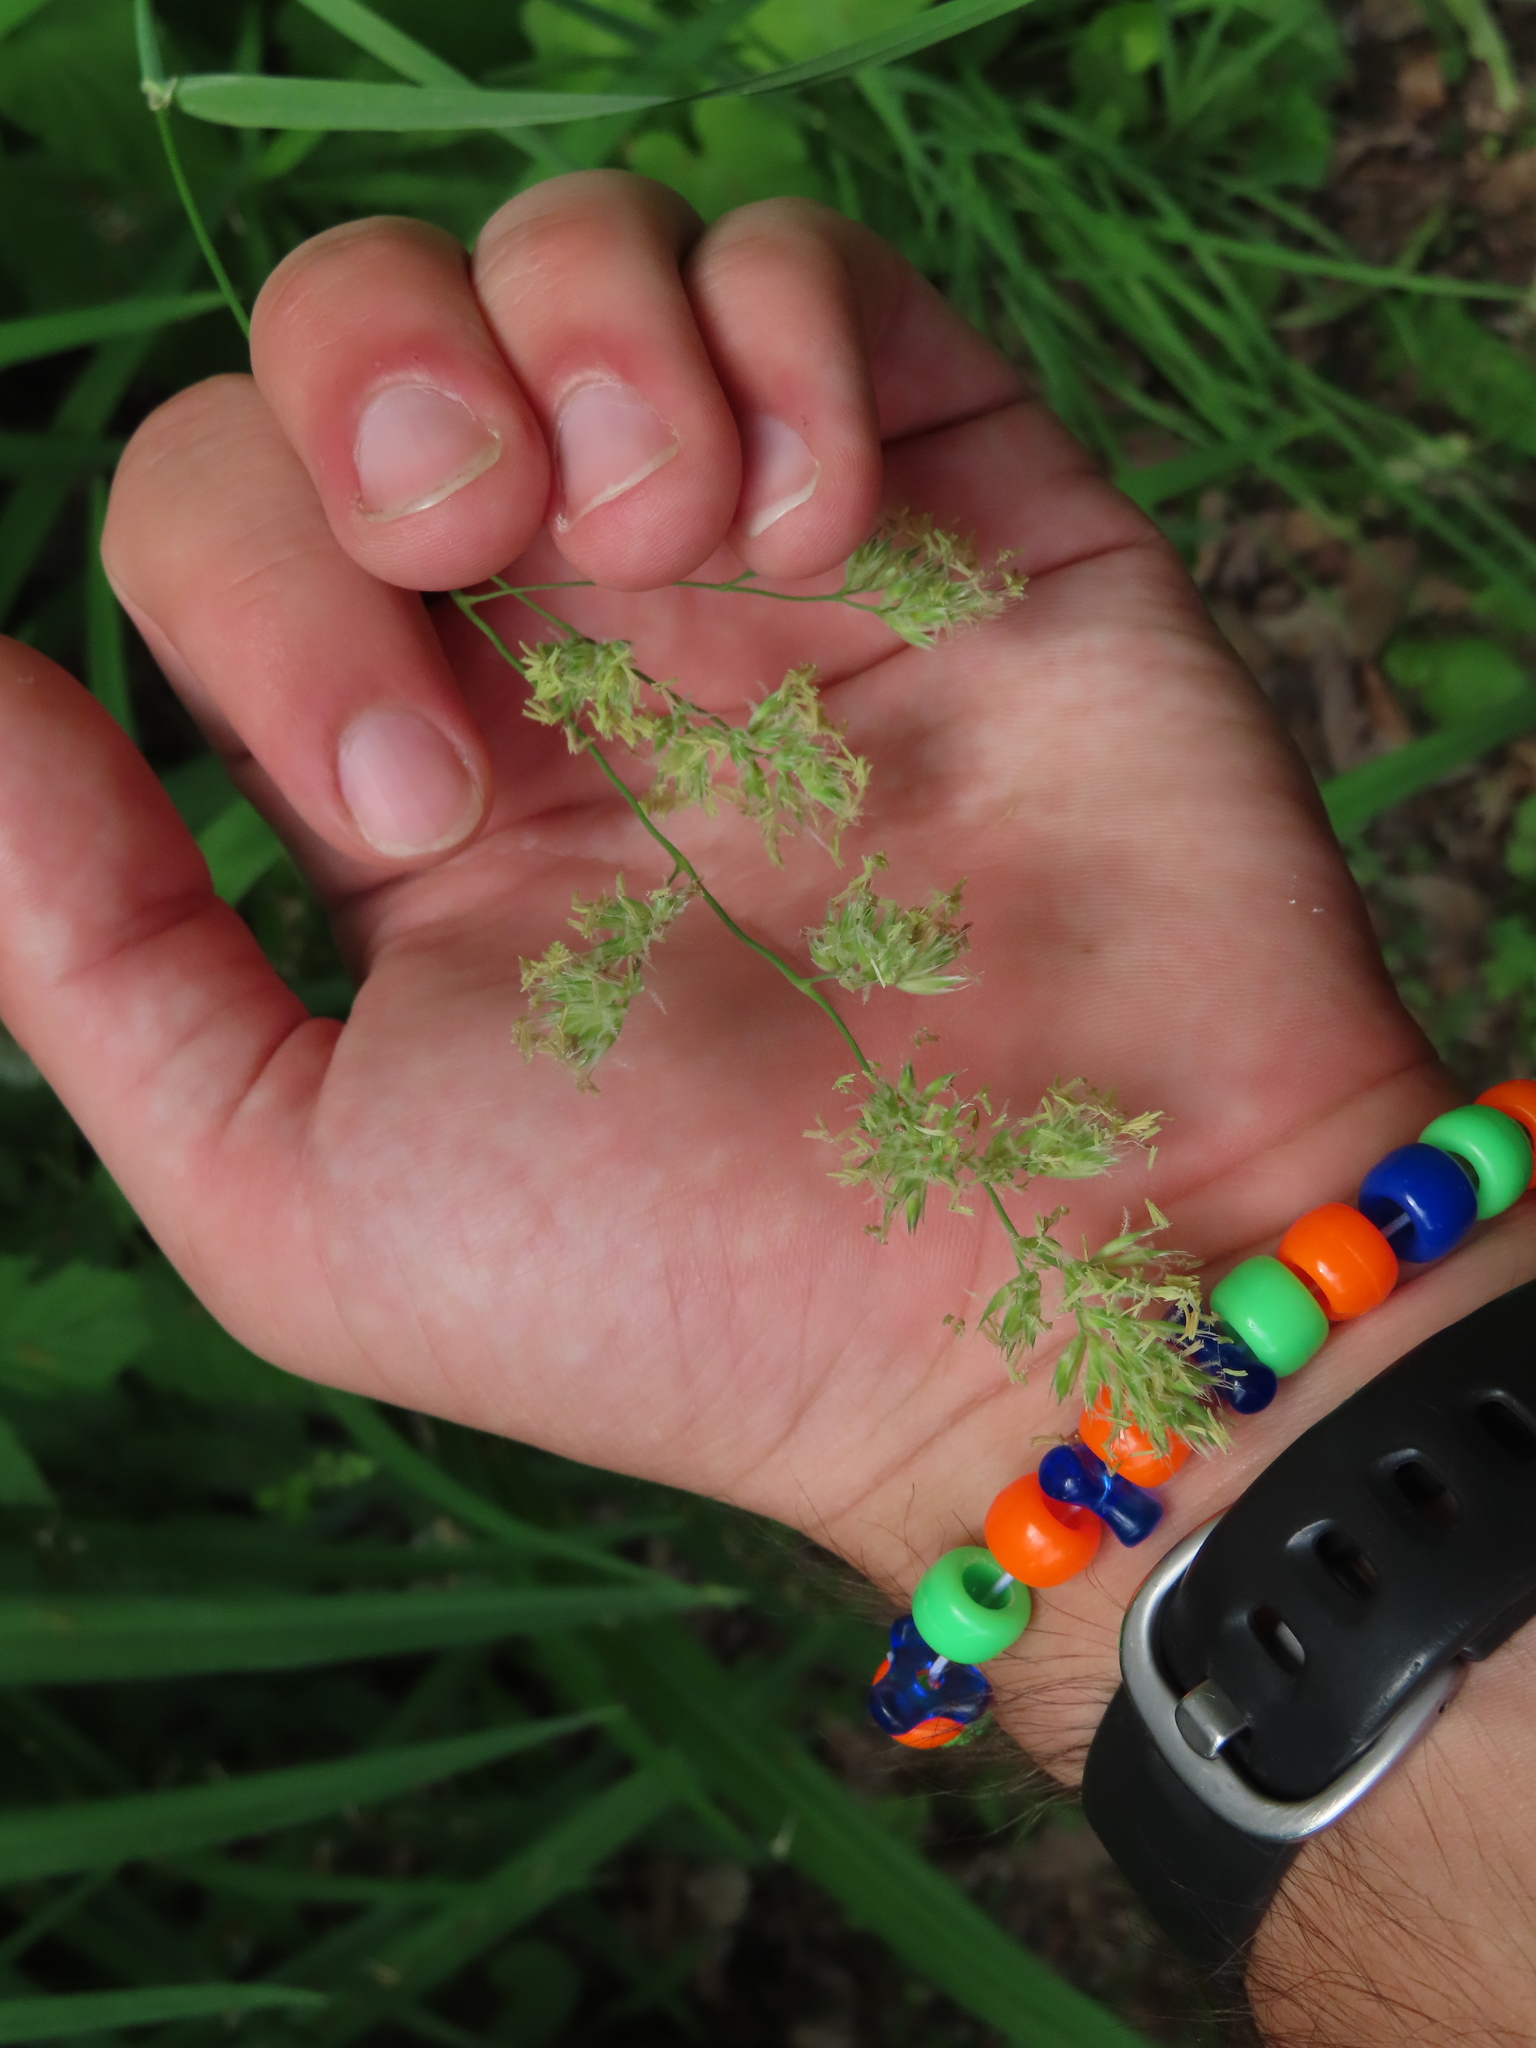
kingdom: Plantae
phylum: Tracheophyta
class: Liliopsida
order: Poales
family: Poaceae
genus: Dactylis
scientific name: Dactylis glomerata
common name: Orchardgrass
